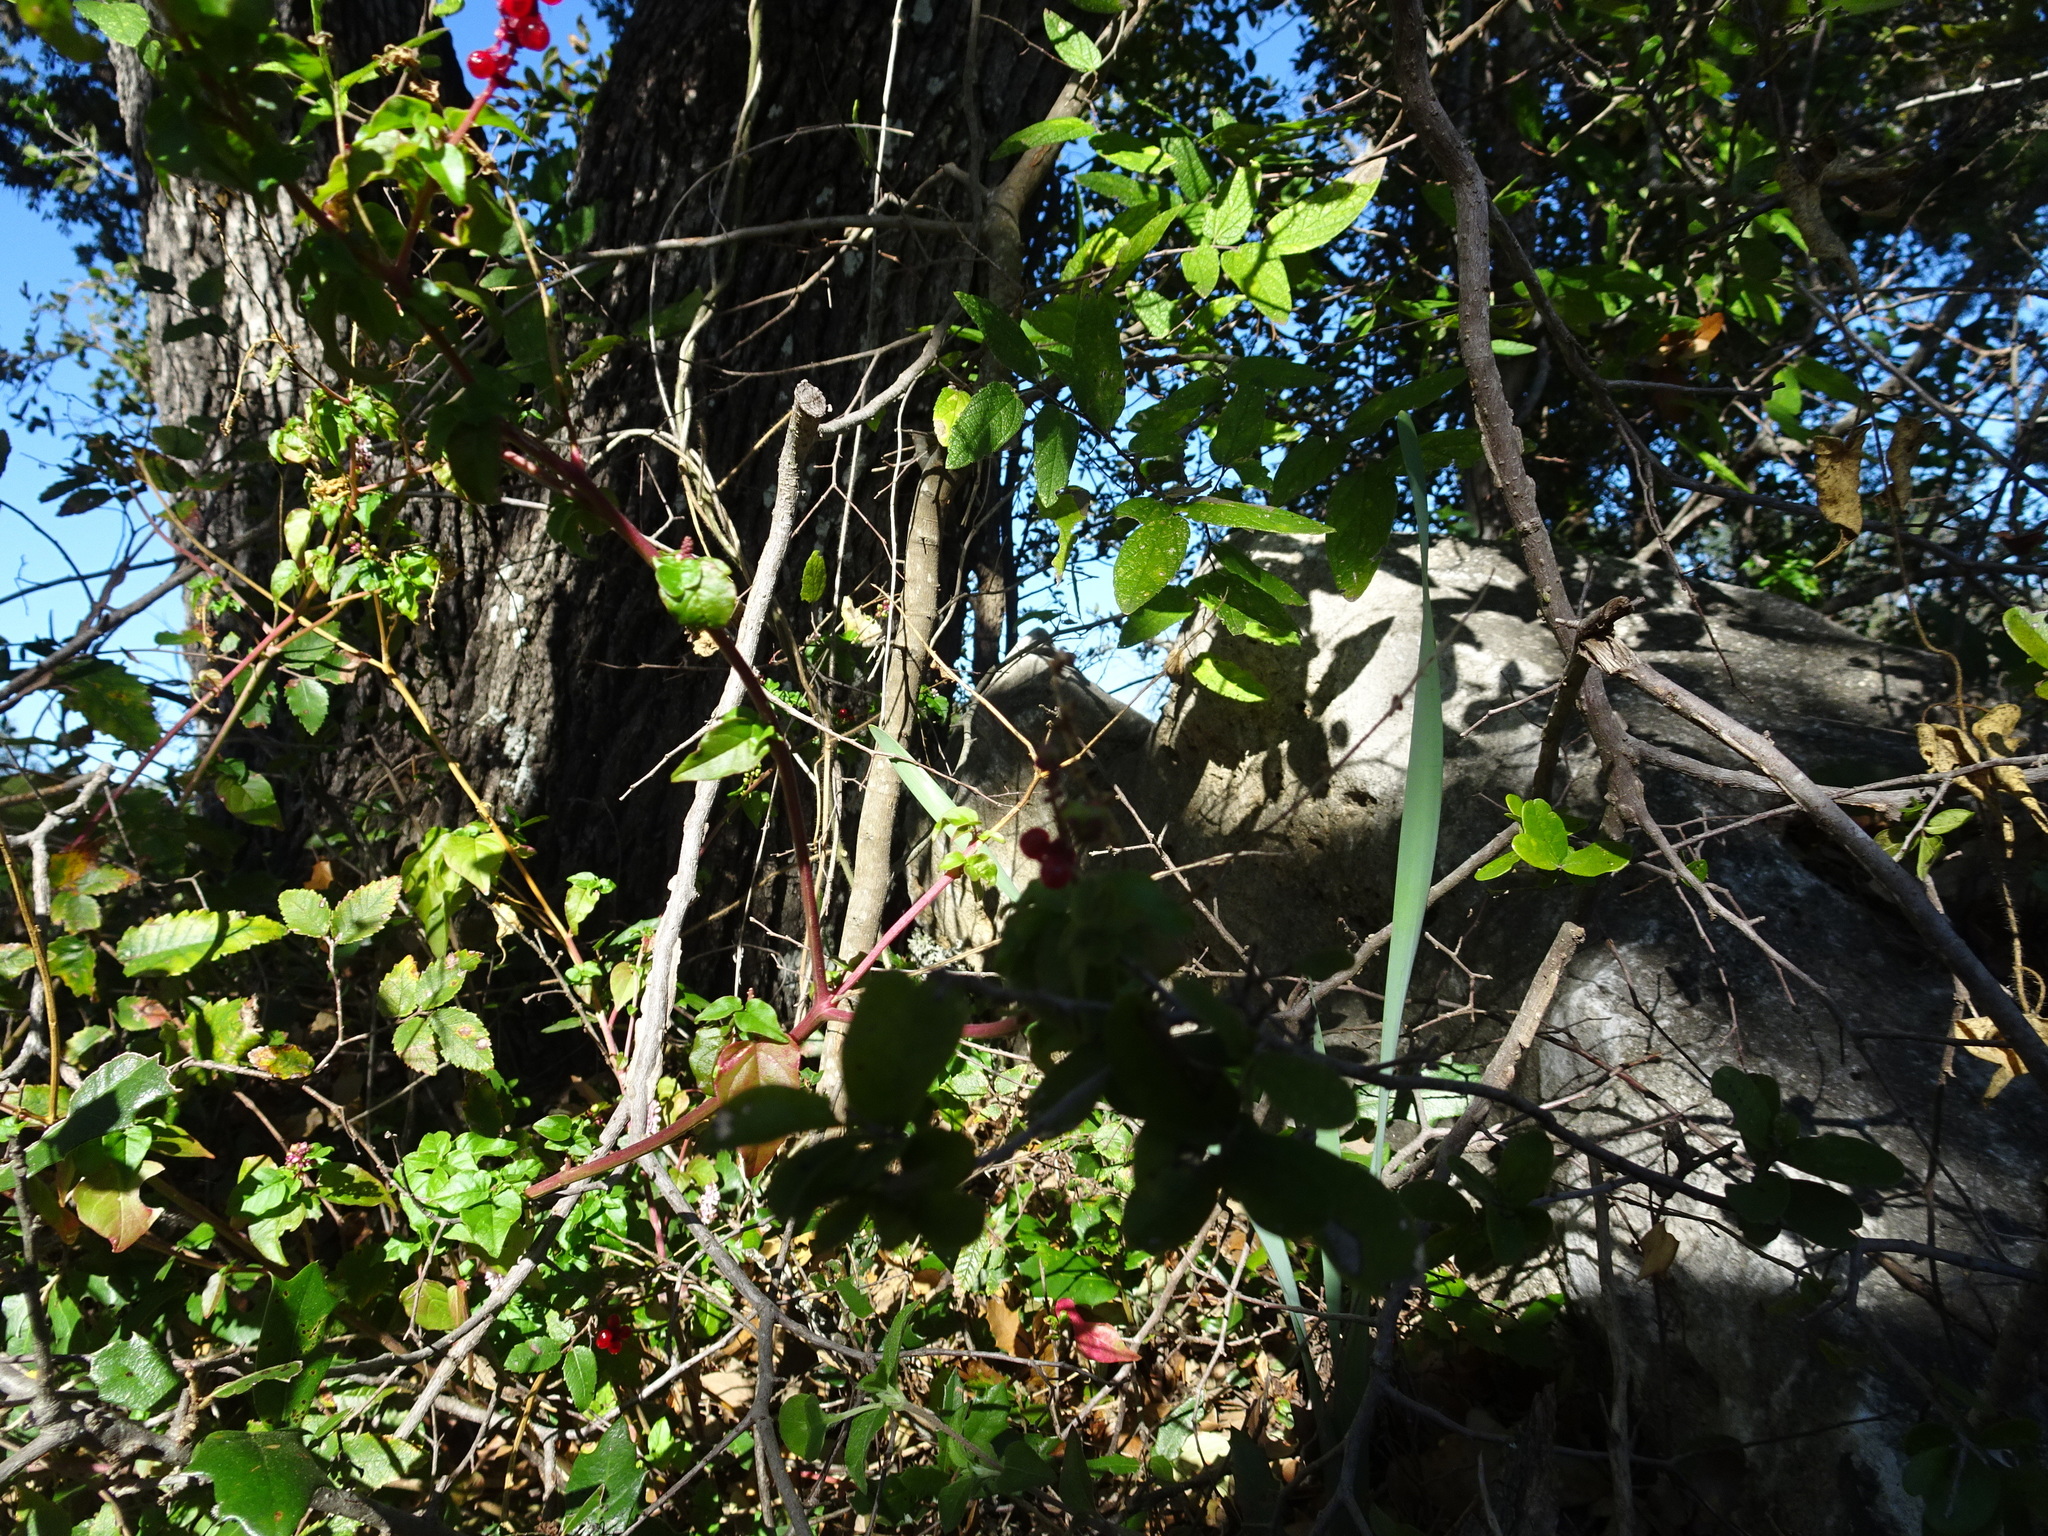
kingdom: Plantae
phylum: Tracheophyta
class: Magnoliopsida
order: Caryophyllales
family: Phytolaccaceae
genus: Rivina
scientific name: Rivina humilis
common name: Rougeplant
